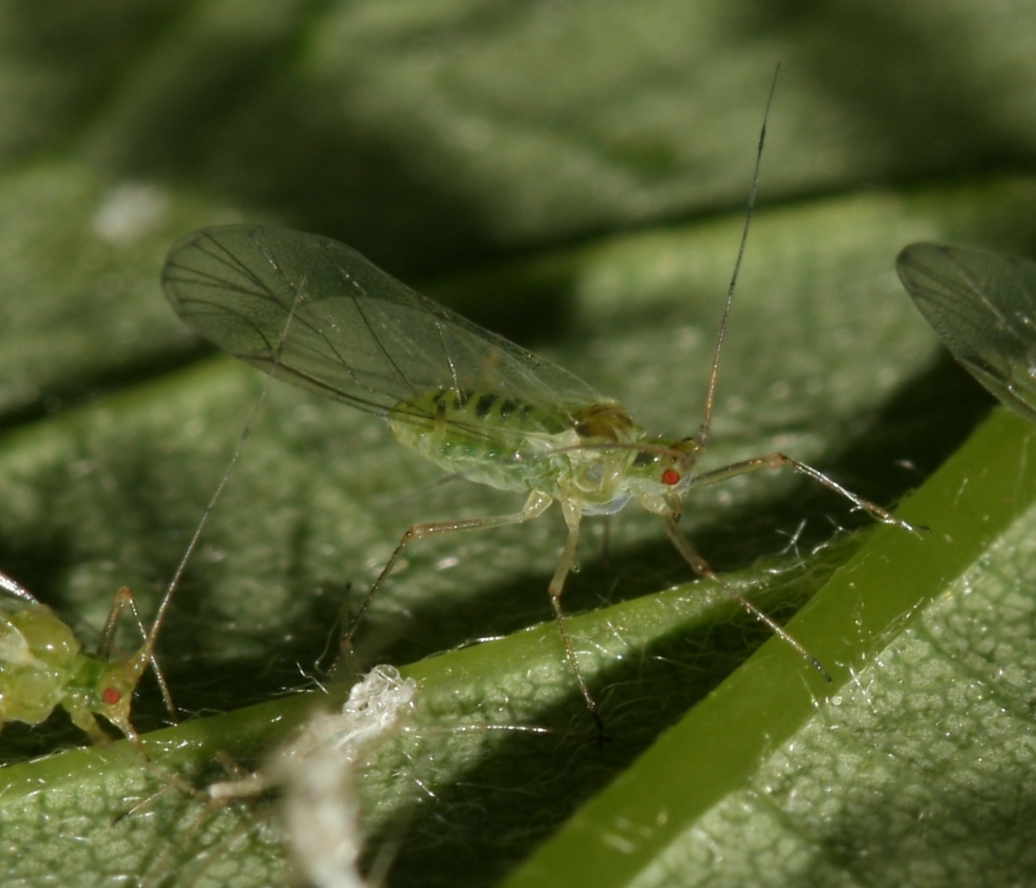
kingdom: Animalia
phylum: Arthropoda
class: Insecta
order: Hemiptera
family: Aphididae
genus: Drepanosiphum
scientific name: Drepanosiphum platanoidis
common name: Common sycamore aphid
